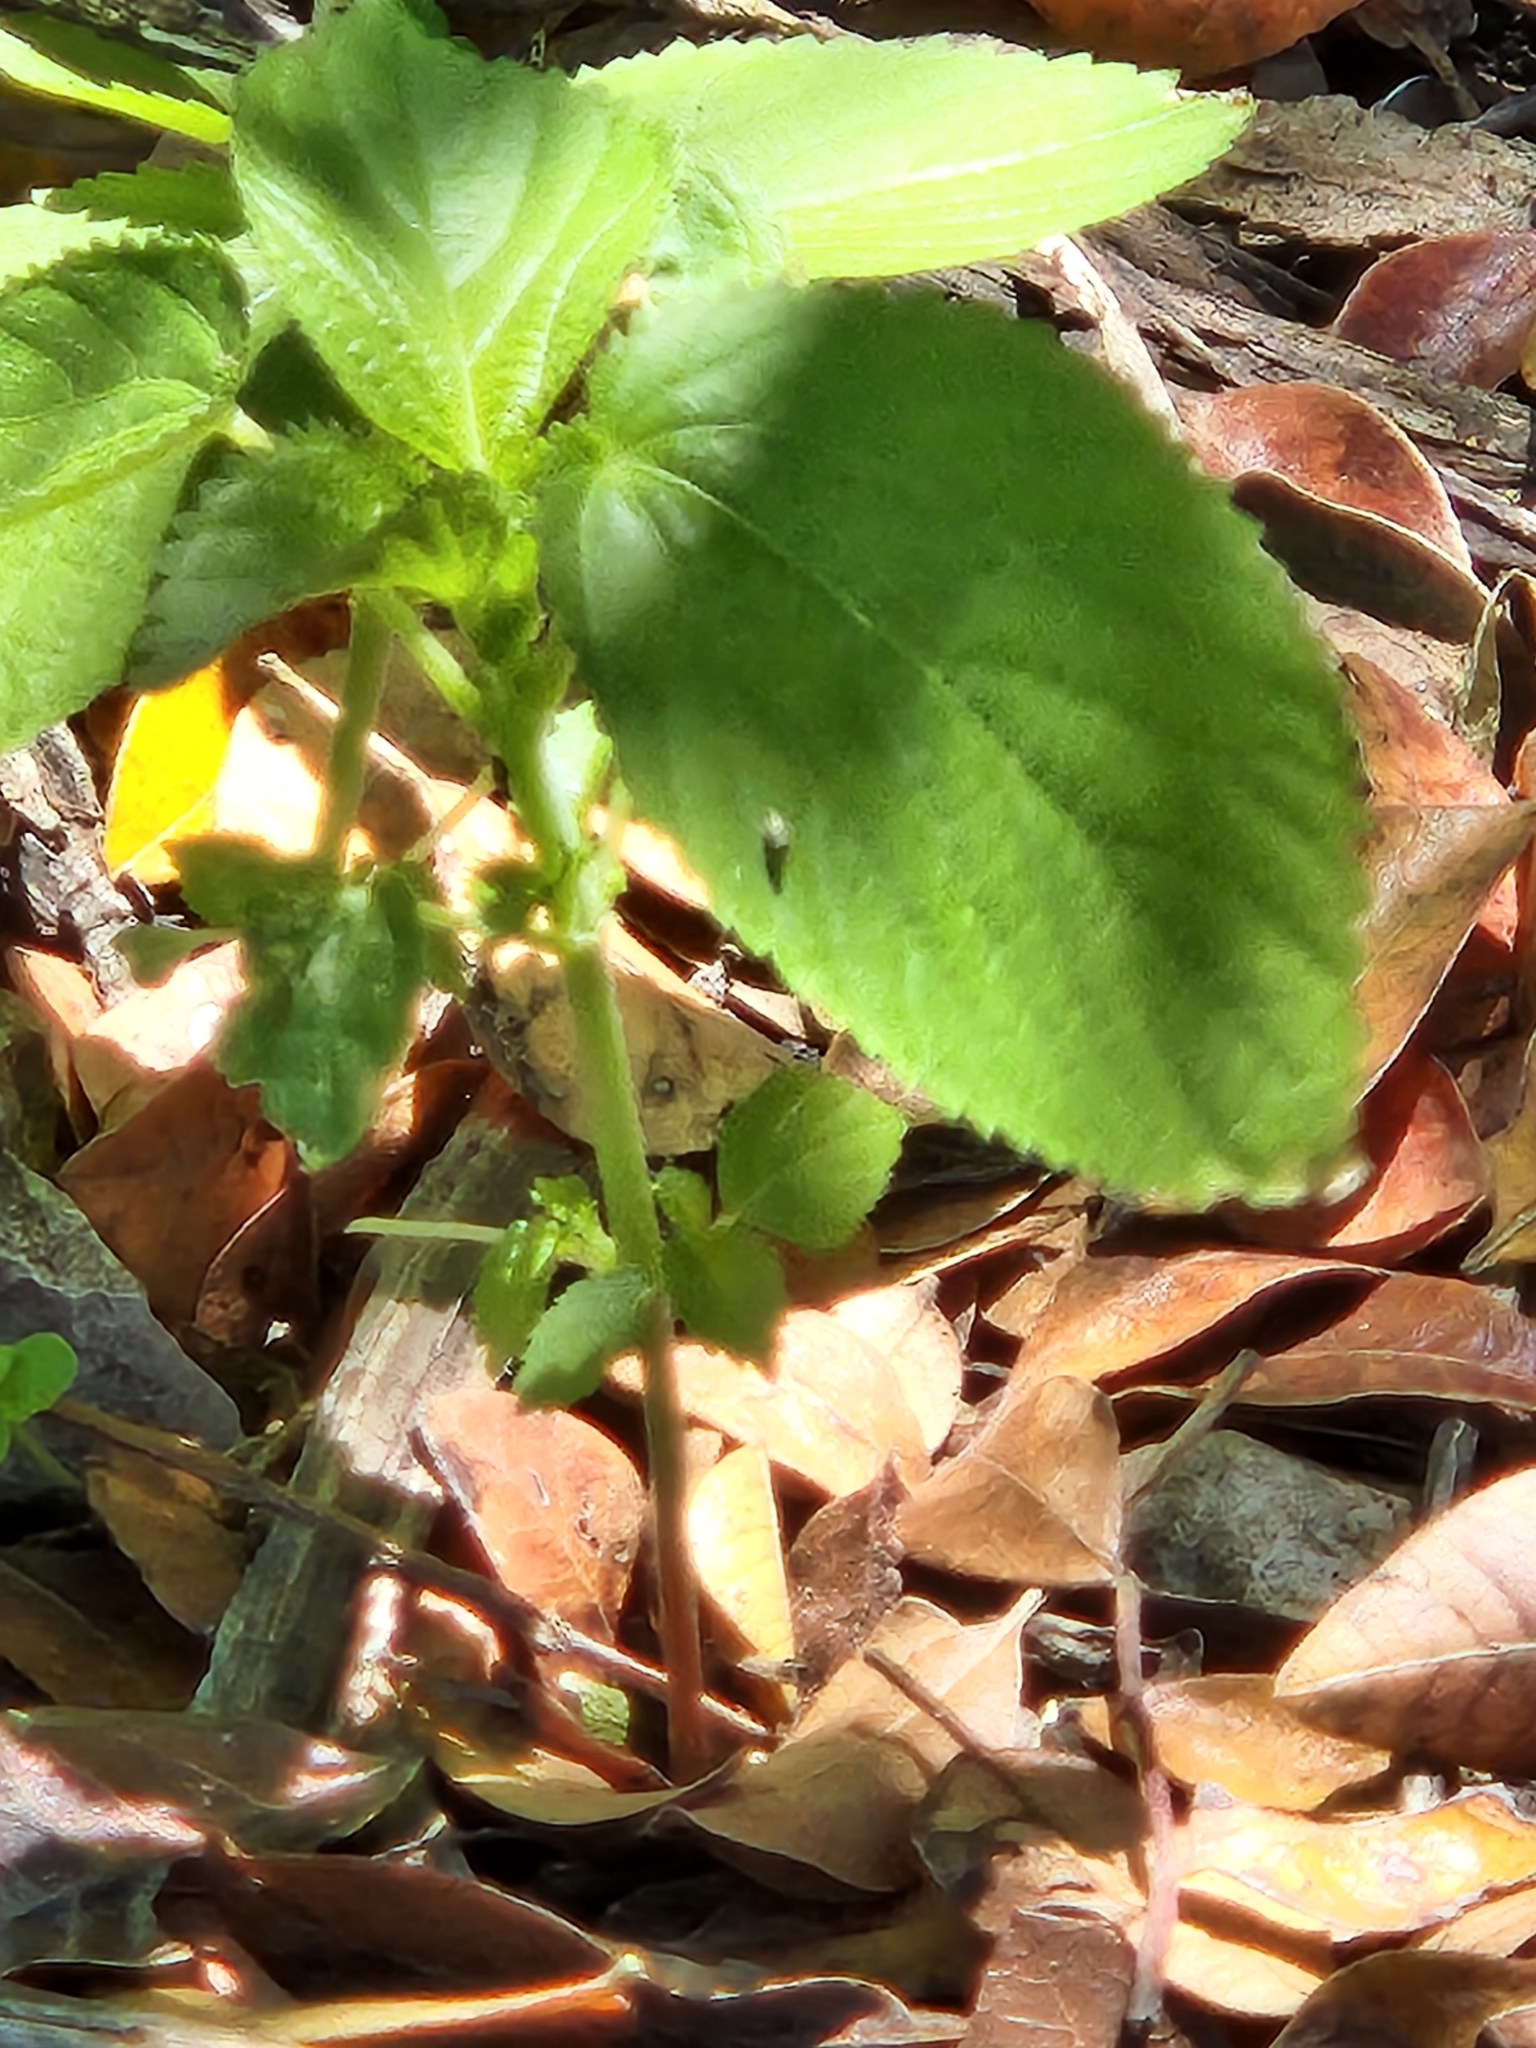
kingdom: Plantae
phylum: Tracheophyta
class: Magnoliopsida
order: Malpighiales
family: Euphorbiaceae
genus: Acalypha
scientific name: Acalypha ostryifolia
